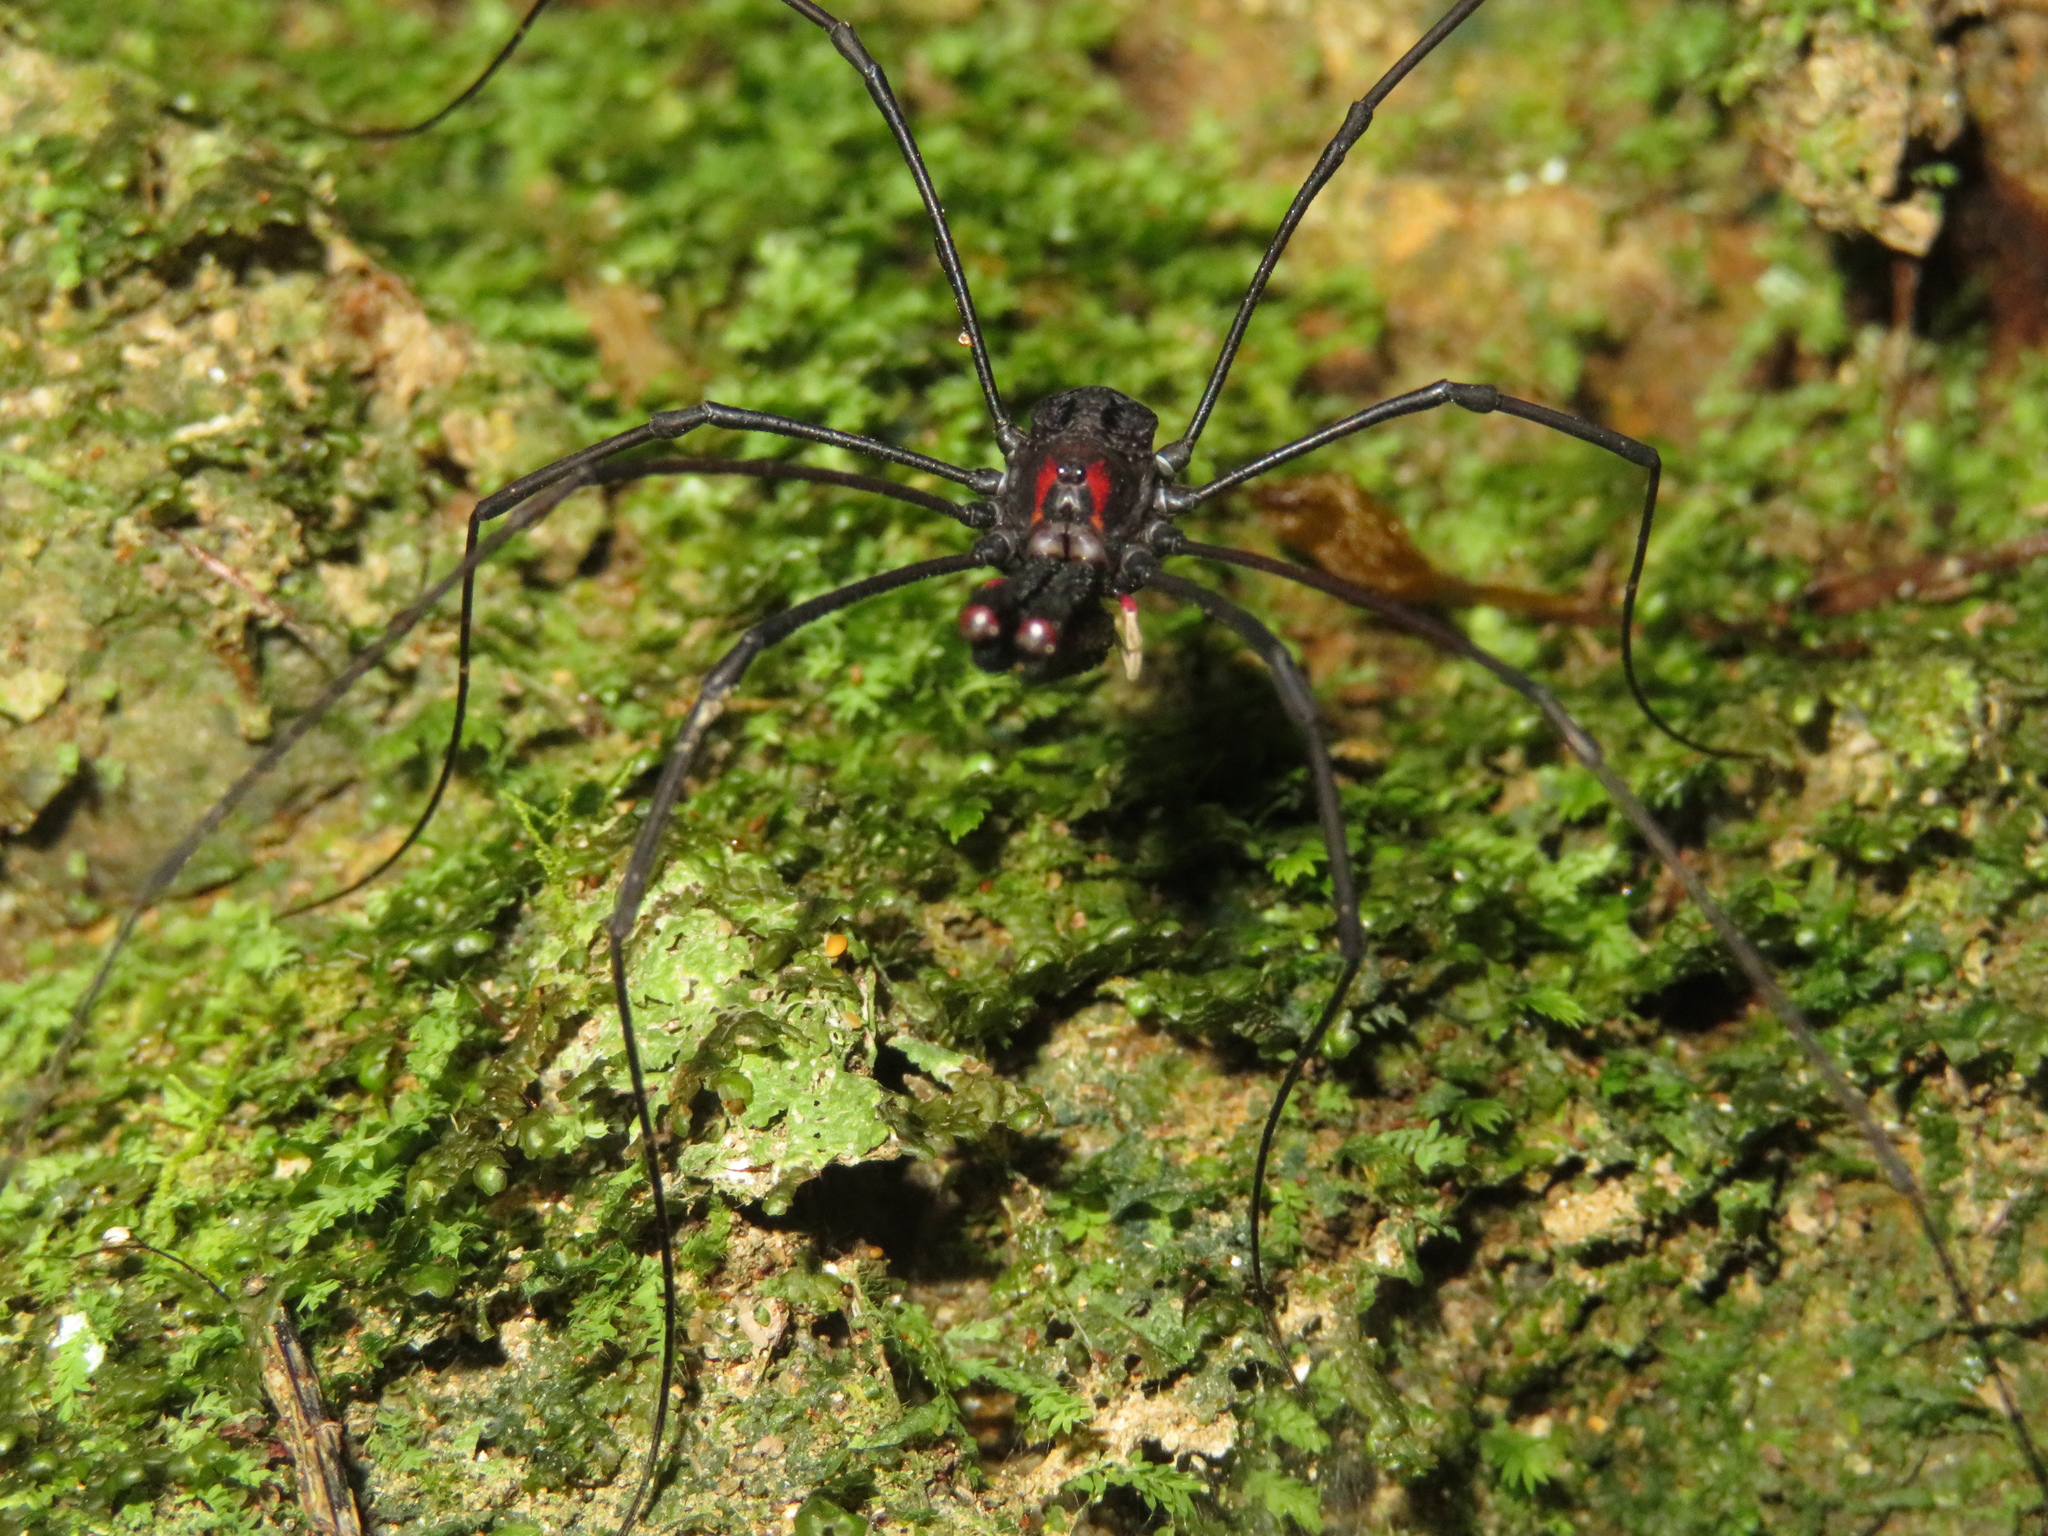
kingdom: Animalia
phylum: Arthropoda
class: Arachnida
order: Opiliones
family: Neopilionidae
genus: Forsteropsalis
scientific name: Forsteropsalis inconstans
